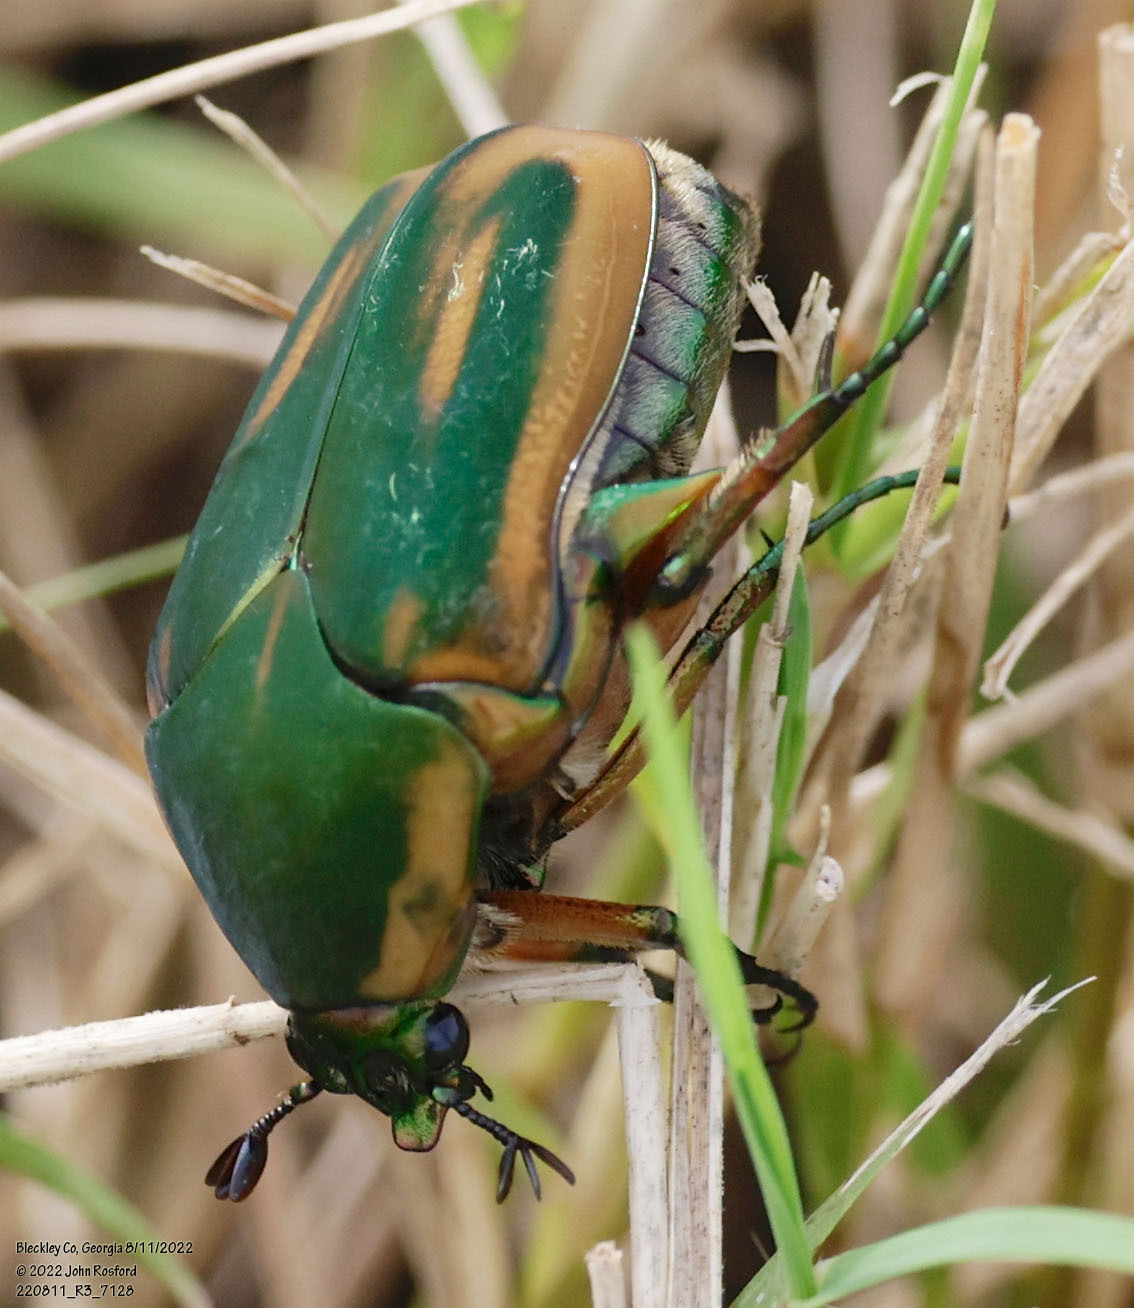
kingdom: Animalia
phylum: Arthropoda
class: Insecta
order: Coleoptera
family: Scarabaeidae
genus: Cotinis
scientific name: Cotinis nitida
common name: Common green june beetle
